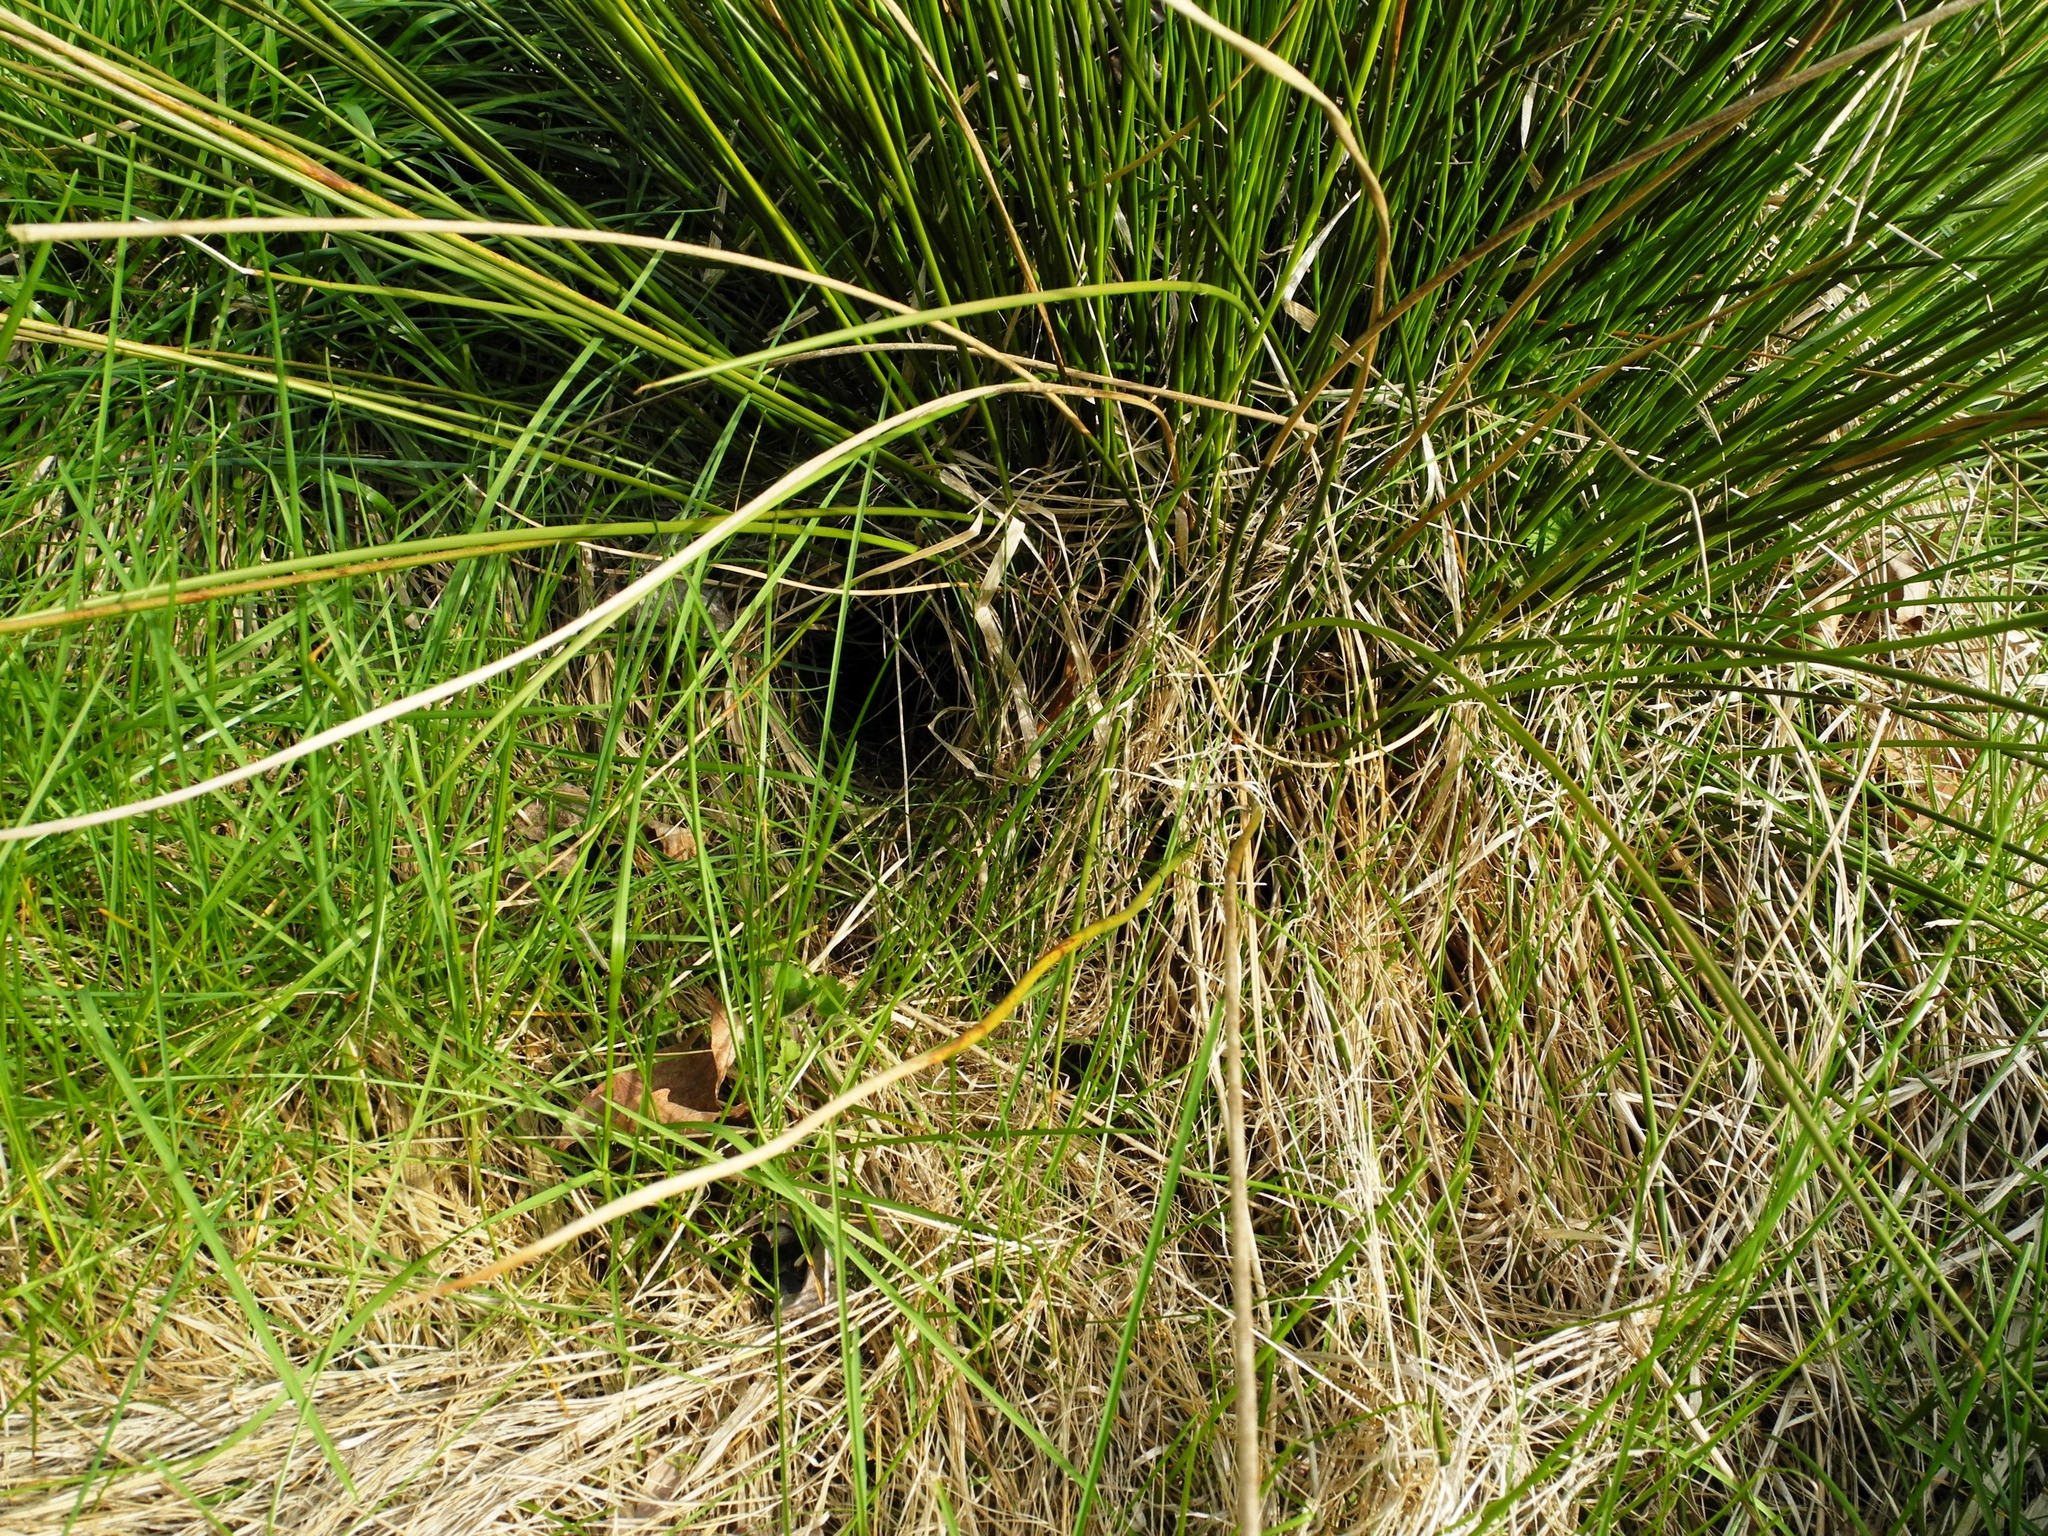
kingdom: Plantae
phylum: Tracheophyta
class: Liliopsida
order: Poales
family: Juncaceae
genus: Juncus
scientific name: Juncus effusus
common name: Soft rush
